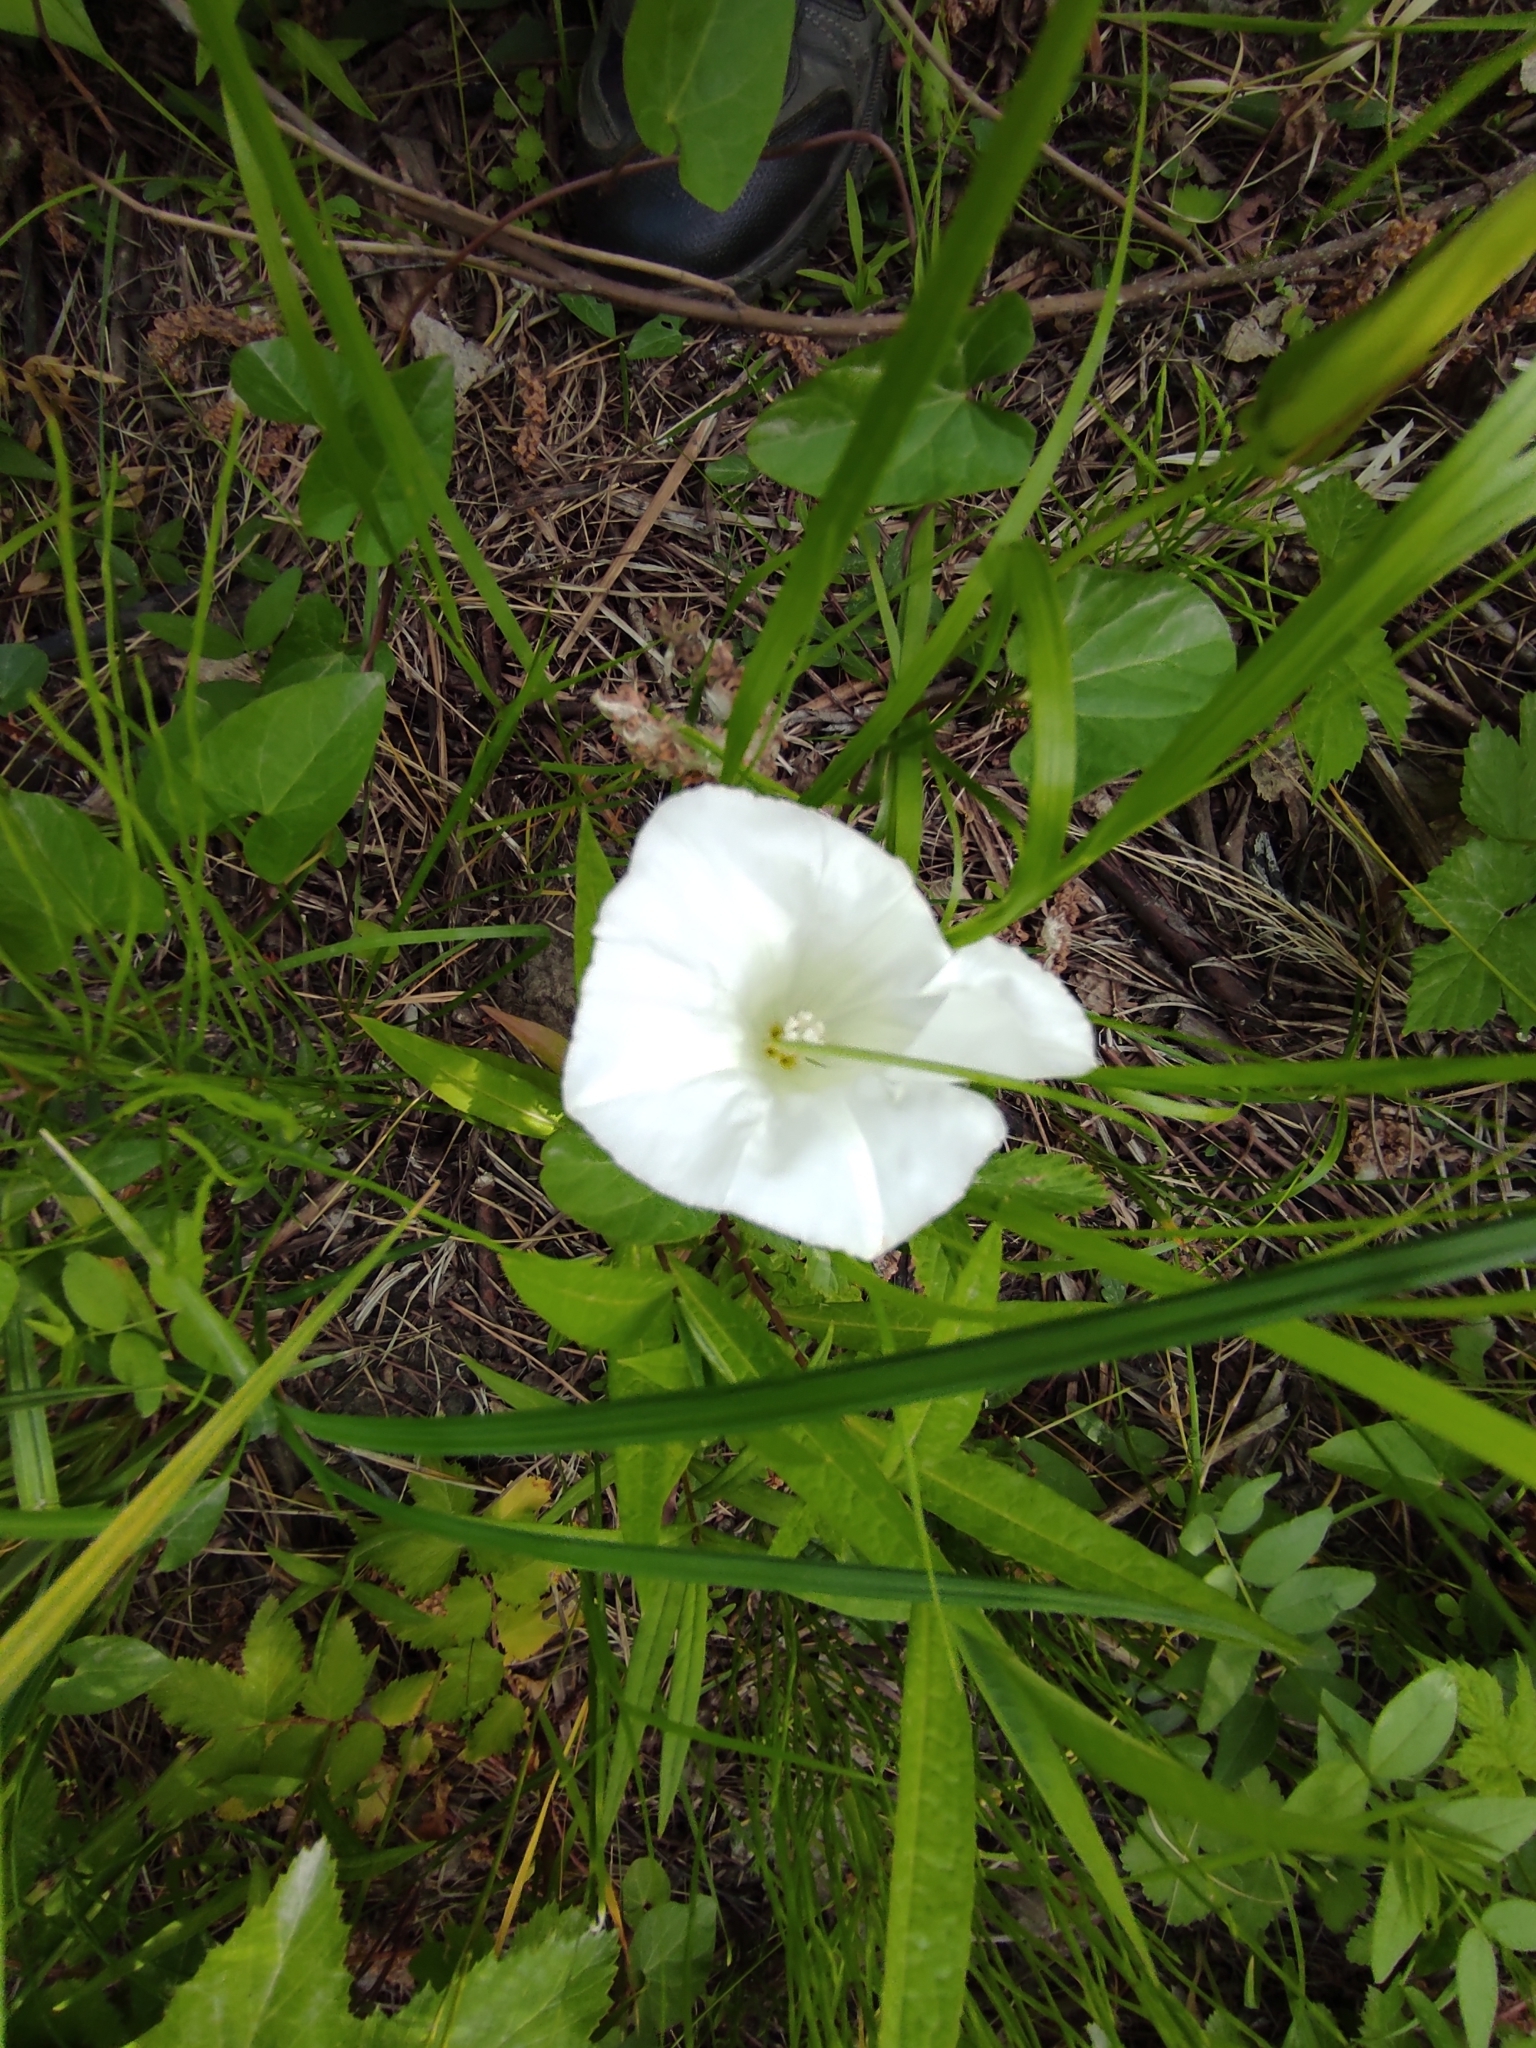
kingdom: Plantae
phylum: Tracheophyta
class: Magnoliopsida
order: Solanales
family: Convolvulaceae
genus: Calystegia
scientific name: Calystegia sepium
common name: Hedge bindweed
